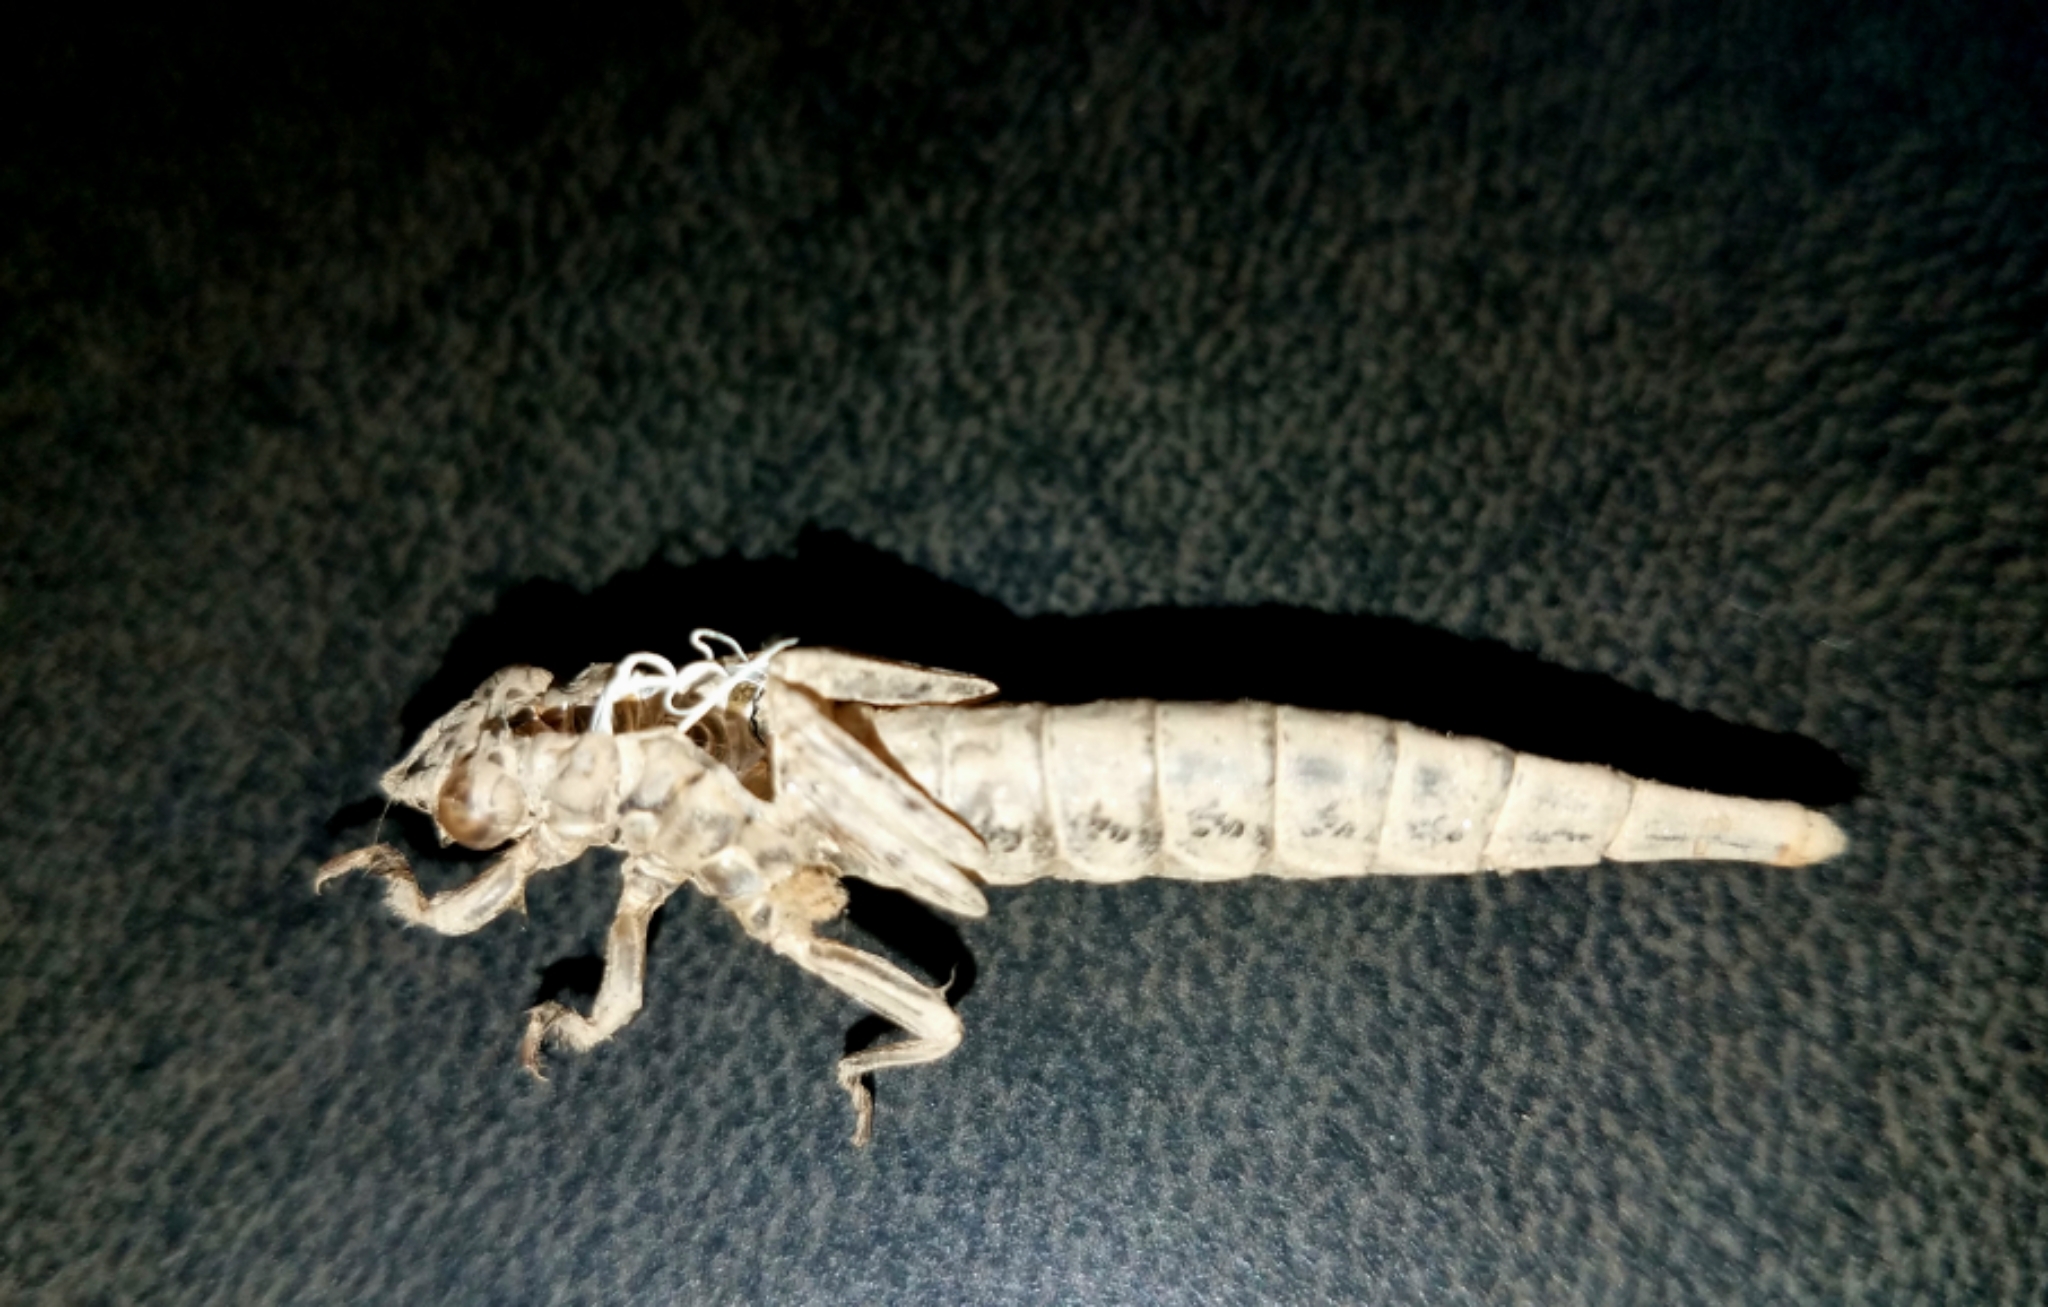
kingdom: Animalia
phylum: Arthropoda
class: Insecta
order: Odonata
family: Gomphidae
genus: Stylurus
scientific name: Stylurus spiniceps
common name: Arrow clubtail
